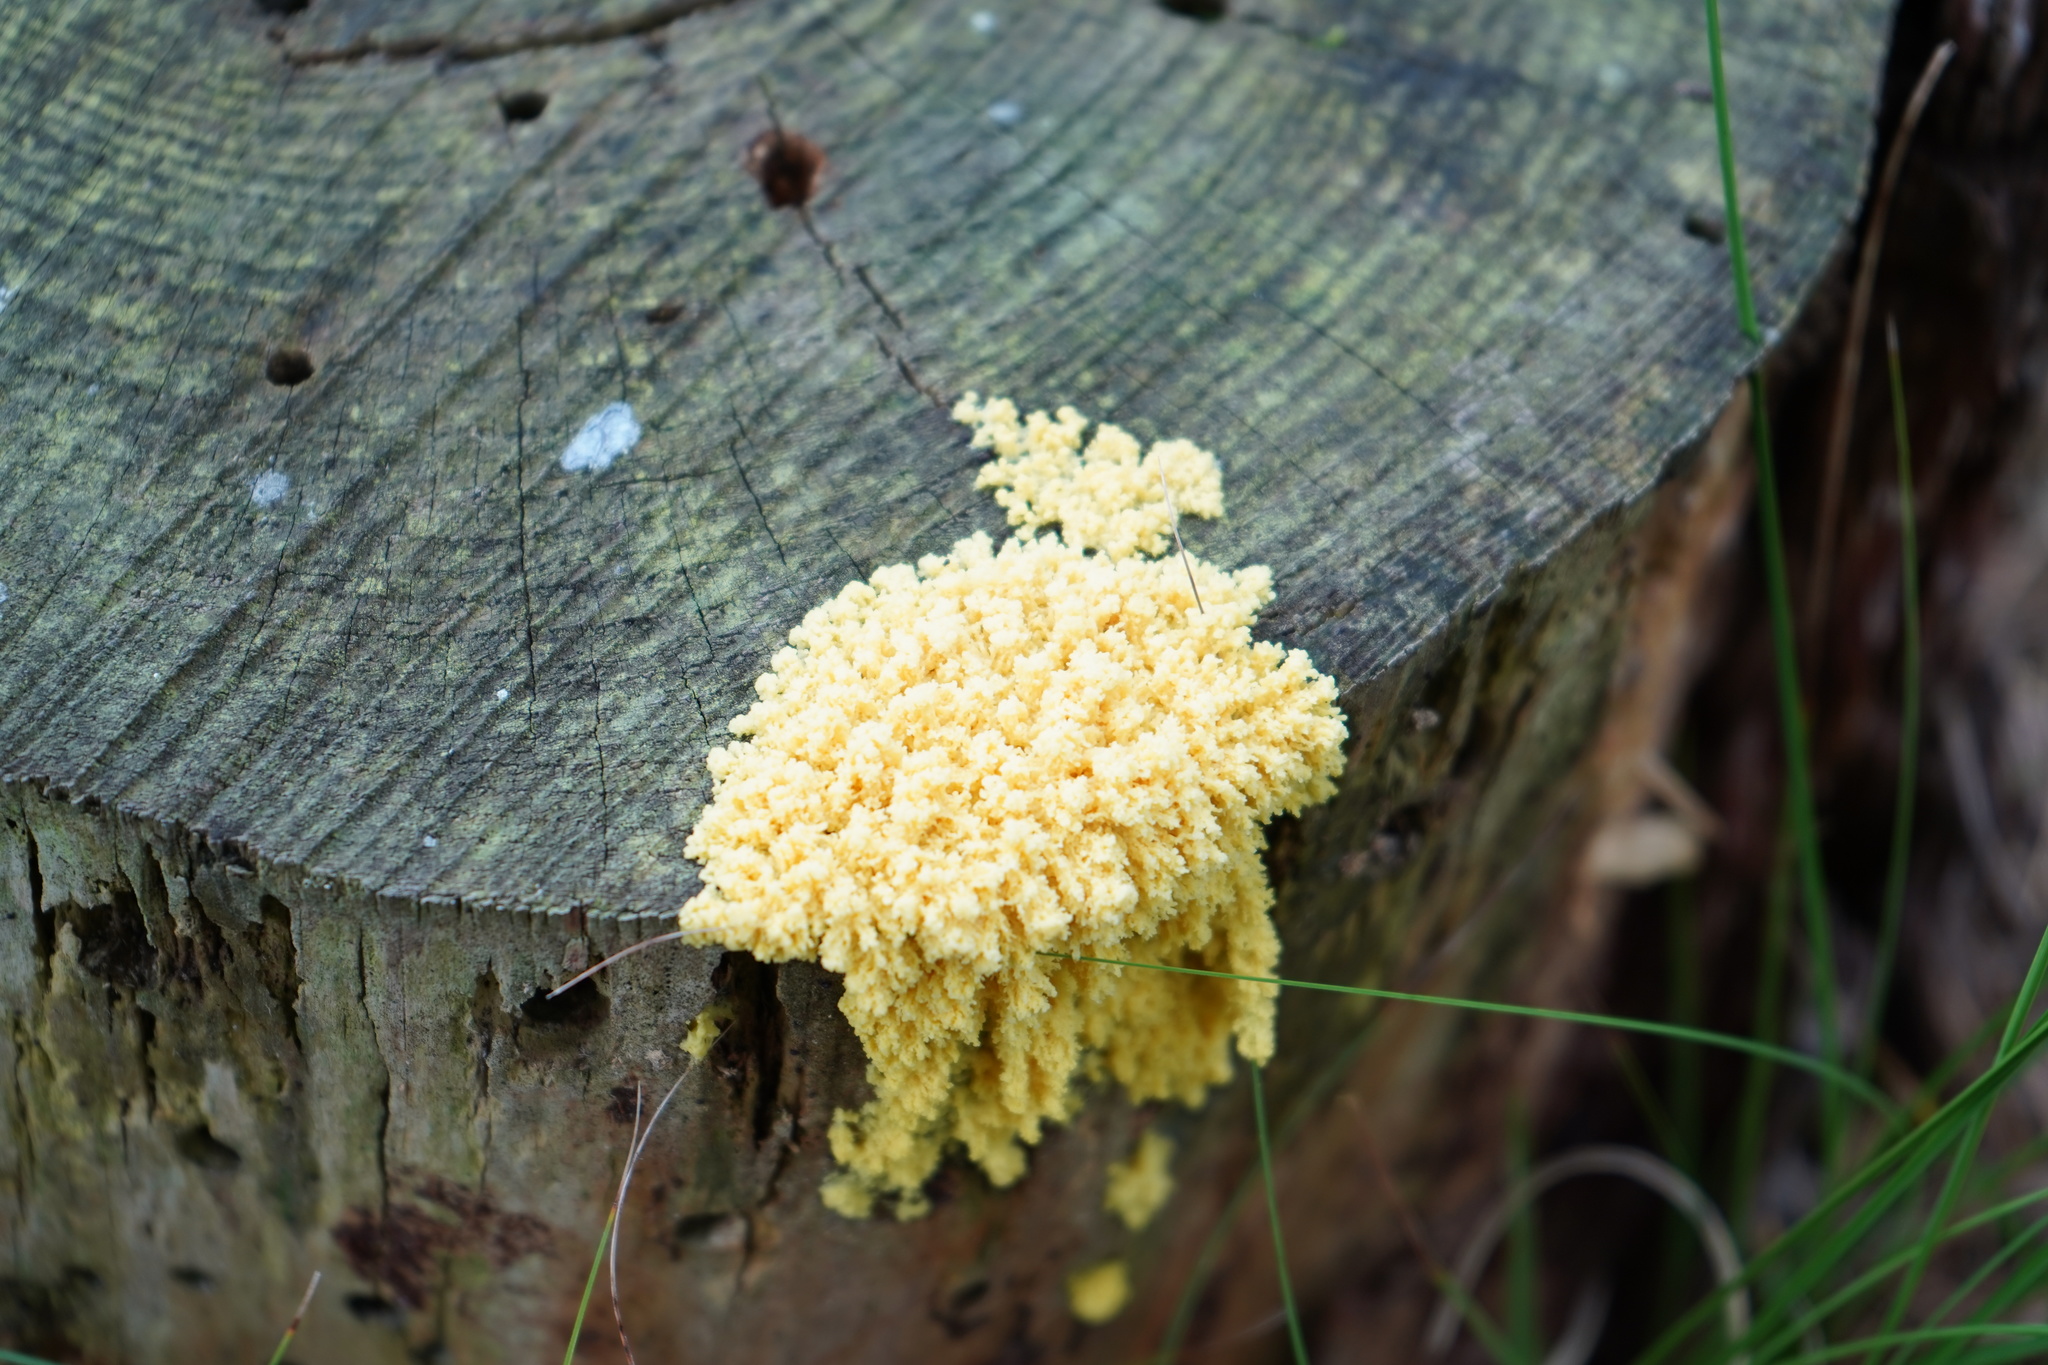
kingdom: Protozoa
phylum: Mycetozoa
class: Myxomycetes
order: Physarales
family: Physaraceae
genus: Fuligo
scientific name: Fuligo septica
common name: Dog vomit slime mold
